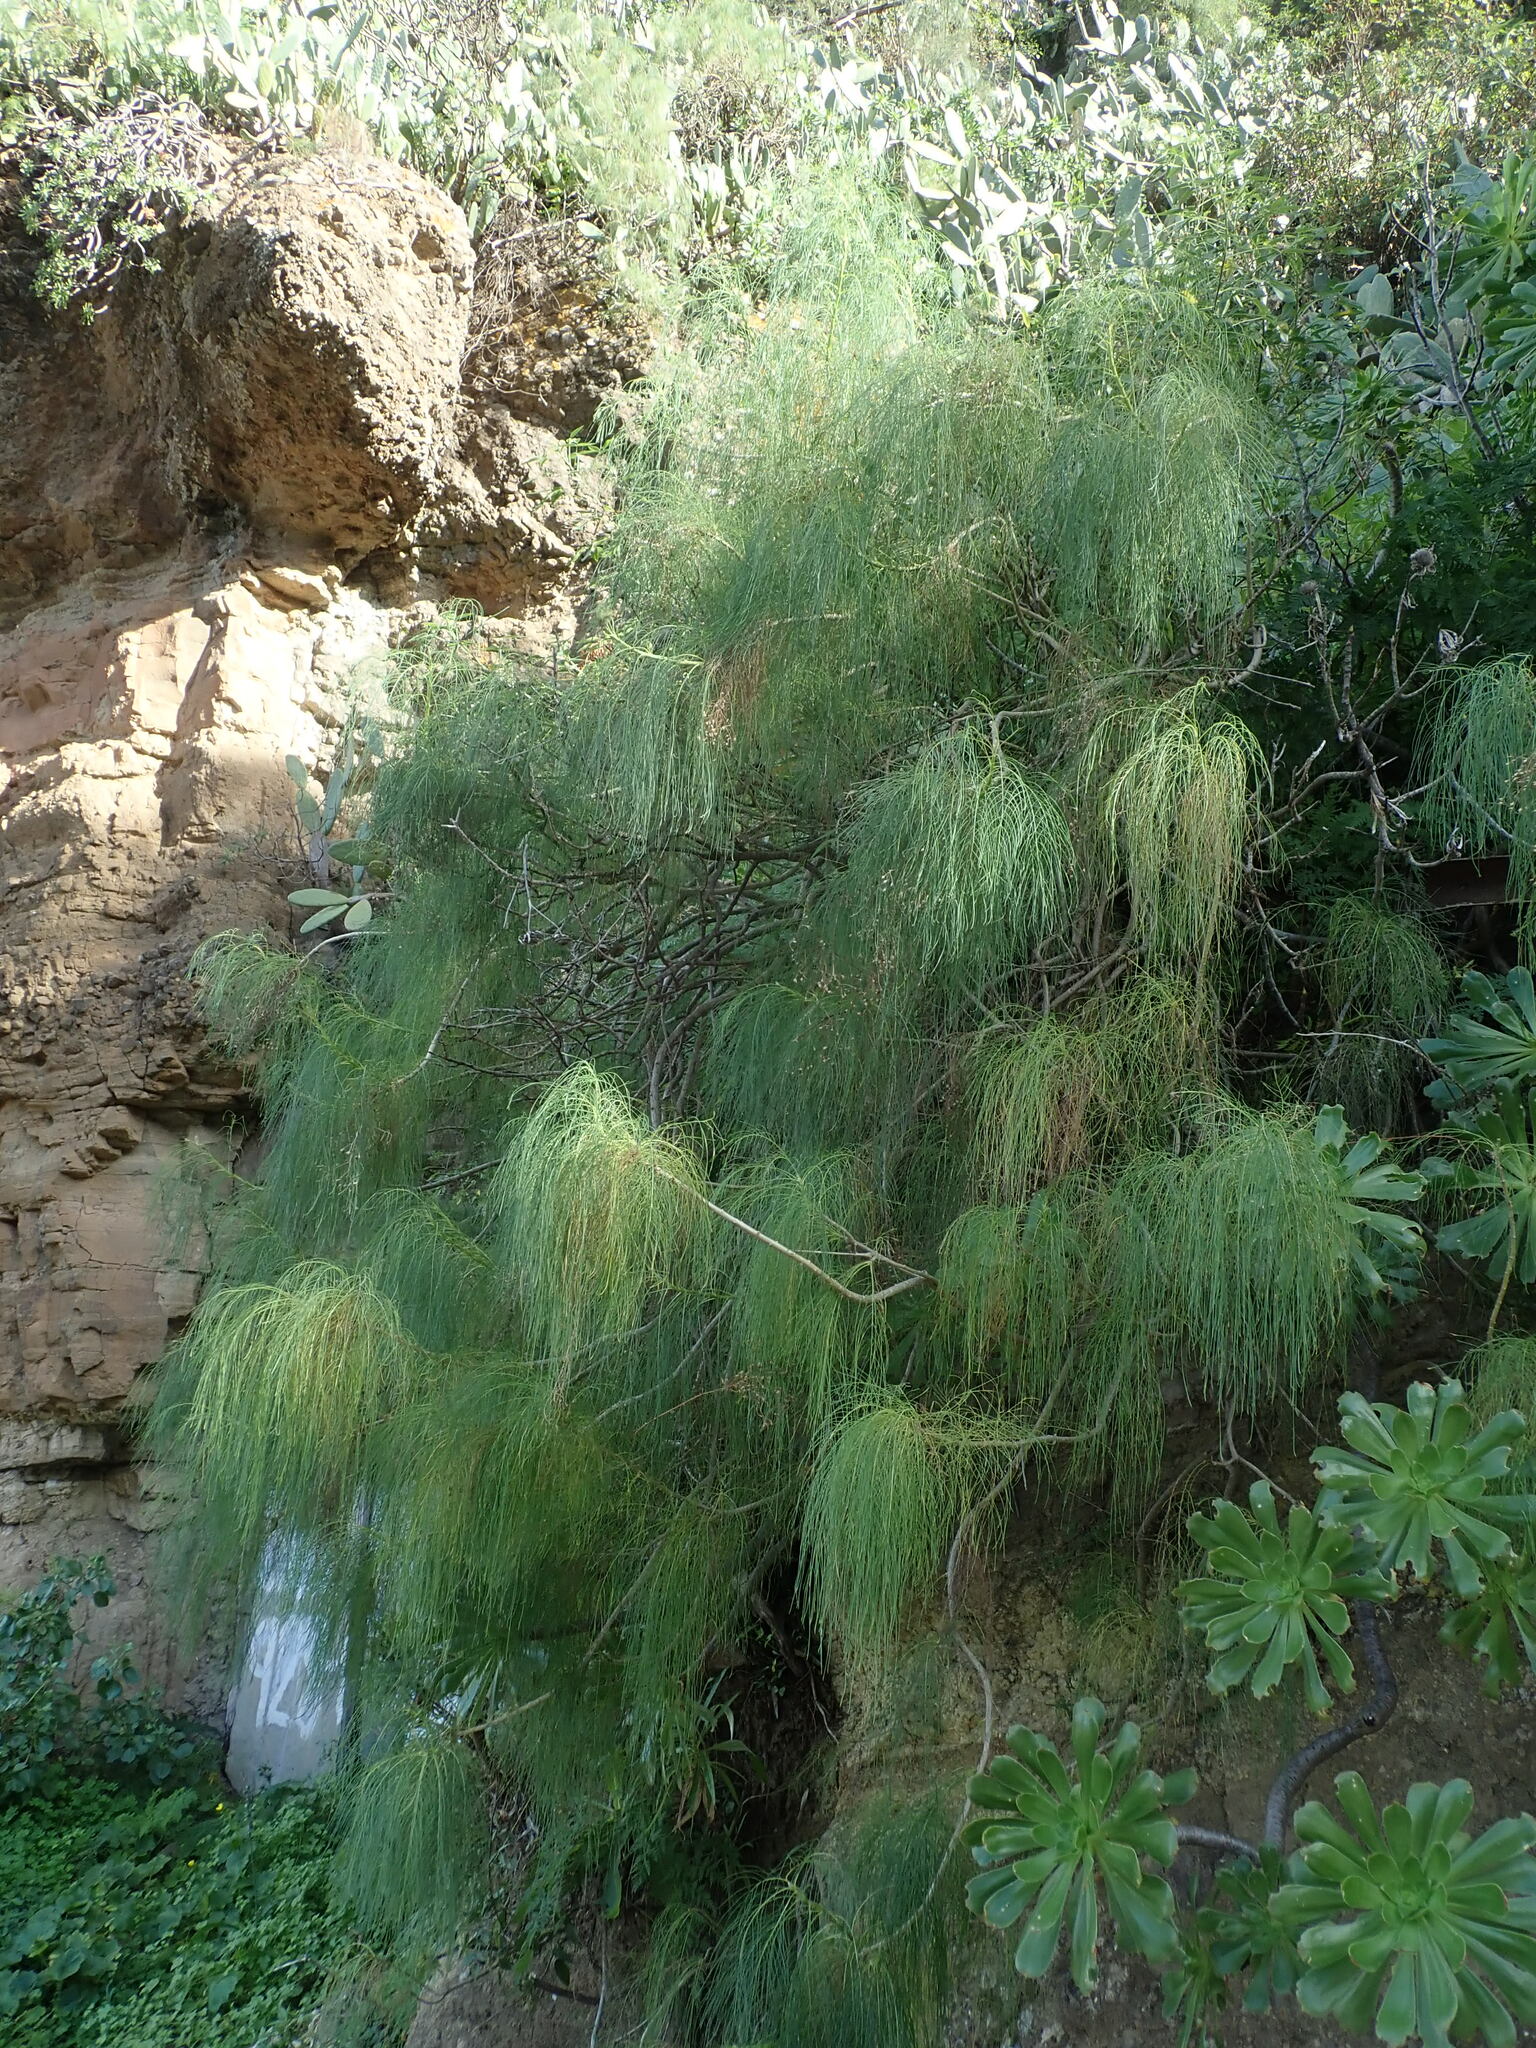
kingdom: Plantae
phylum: Tracheophyta
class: Magnoliopsida
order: Asterales
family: Asteraceae
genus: Sonchus
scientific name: Sonchus leptocephalus
